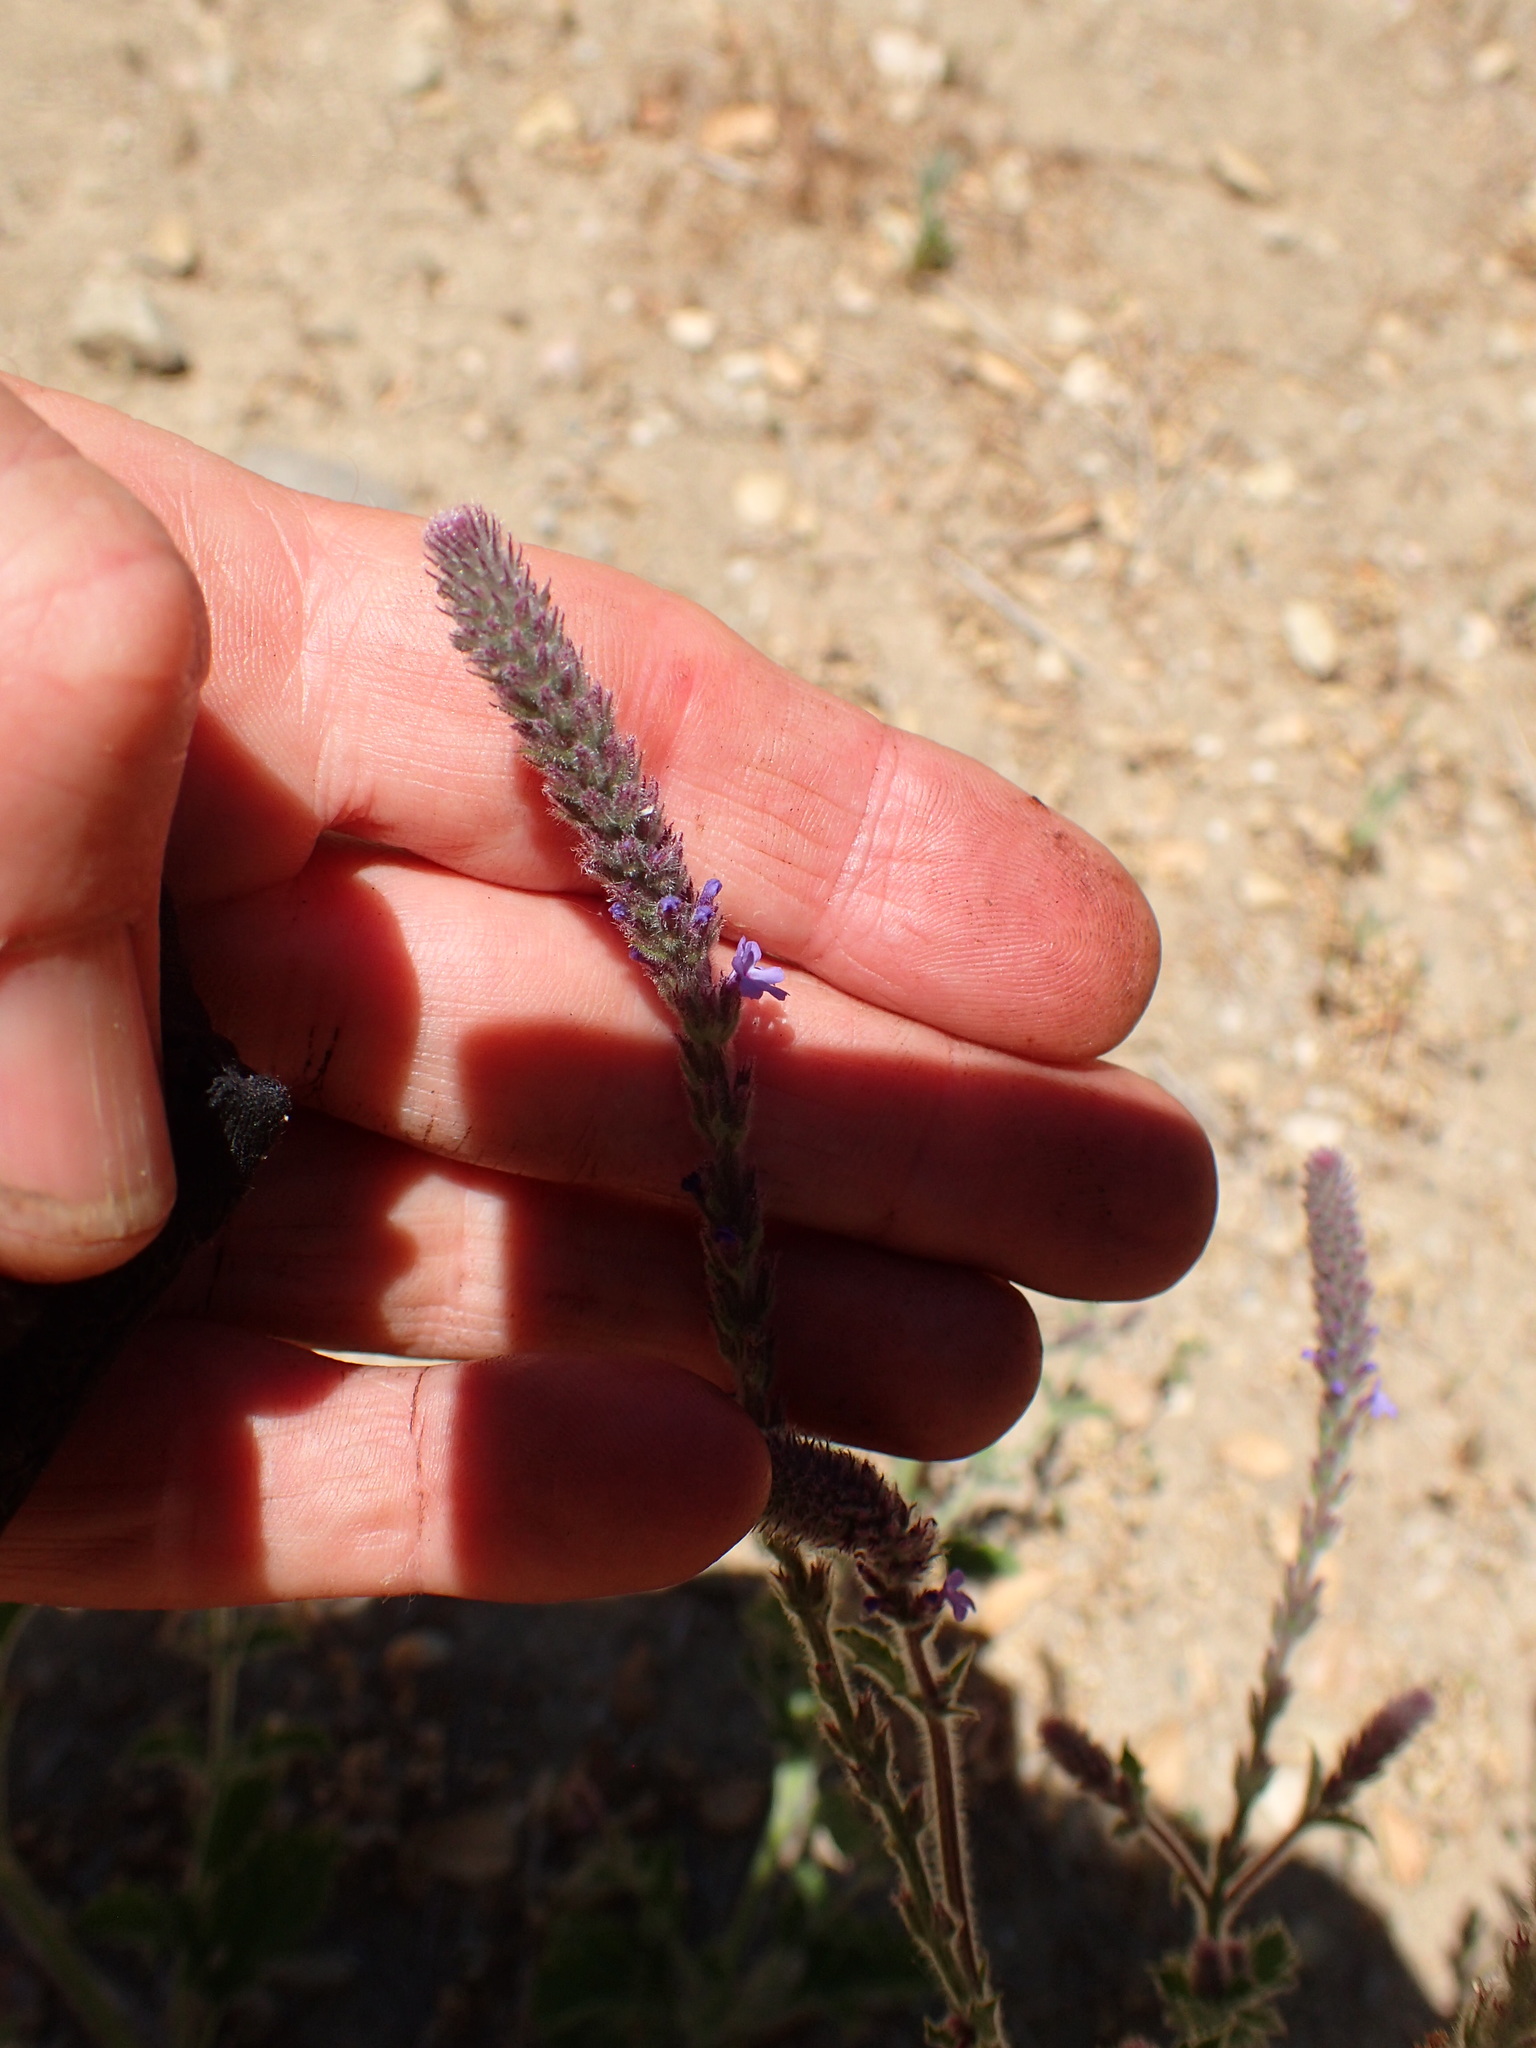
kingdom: Plantae
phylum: Tracheophyta
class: Magnoliopsida
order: Lamiales
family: Verbenaceae
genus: Verbena
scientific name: Verbena lasiostachys
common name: Vervain
